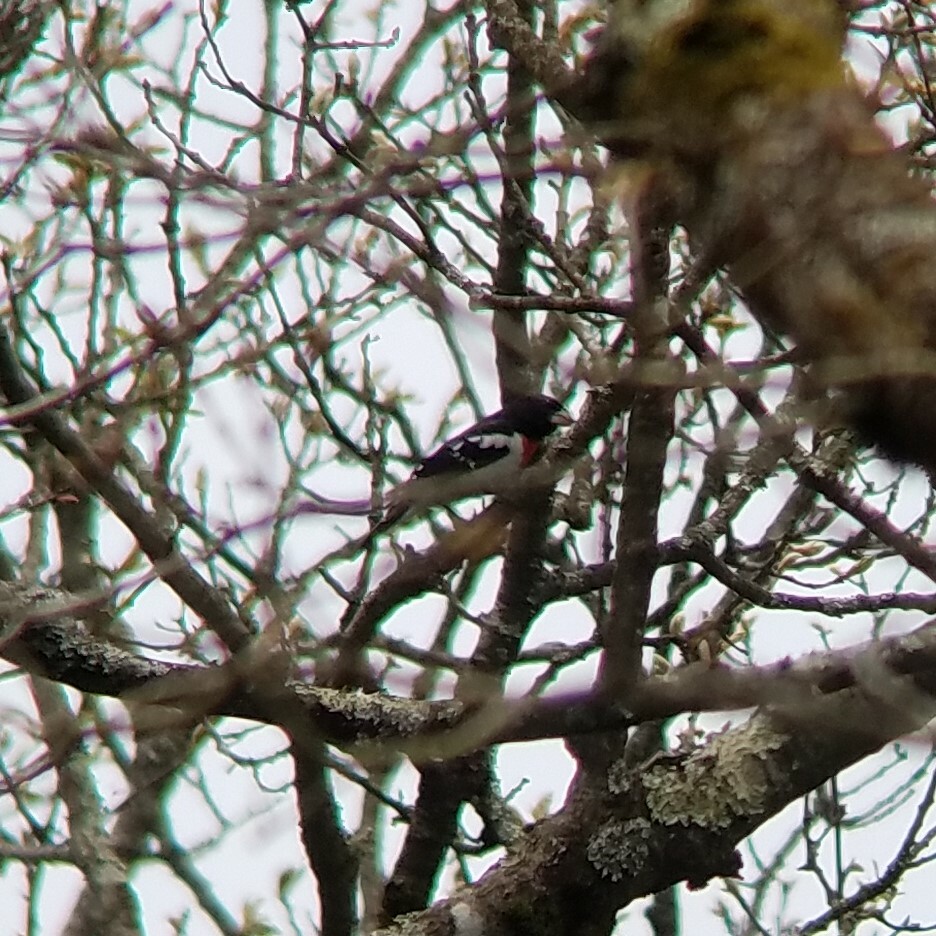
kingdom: Animalia
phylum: Chordata
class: Aves
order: Passeriformes
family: Cardinalidae
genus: Pheucticus
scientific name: Pheucticus ludovicianus
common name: Rose-breasted grosbeak
